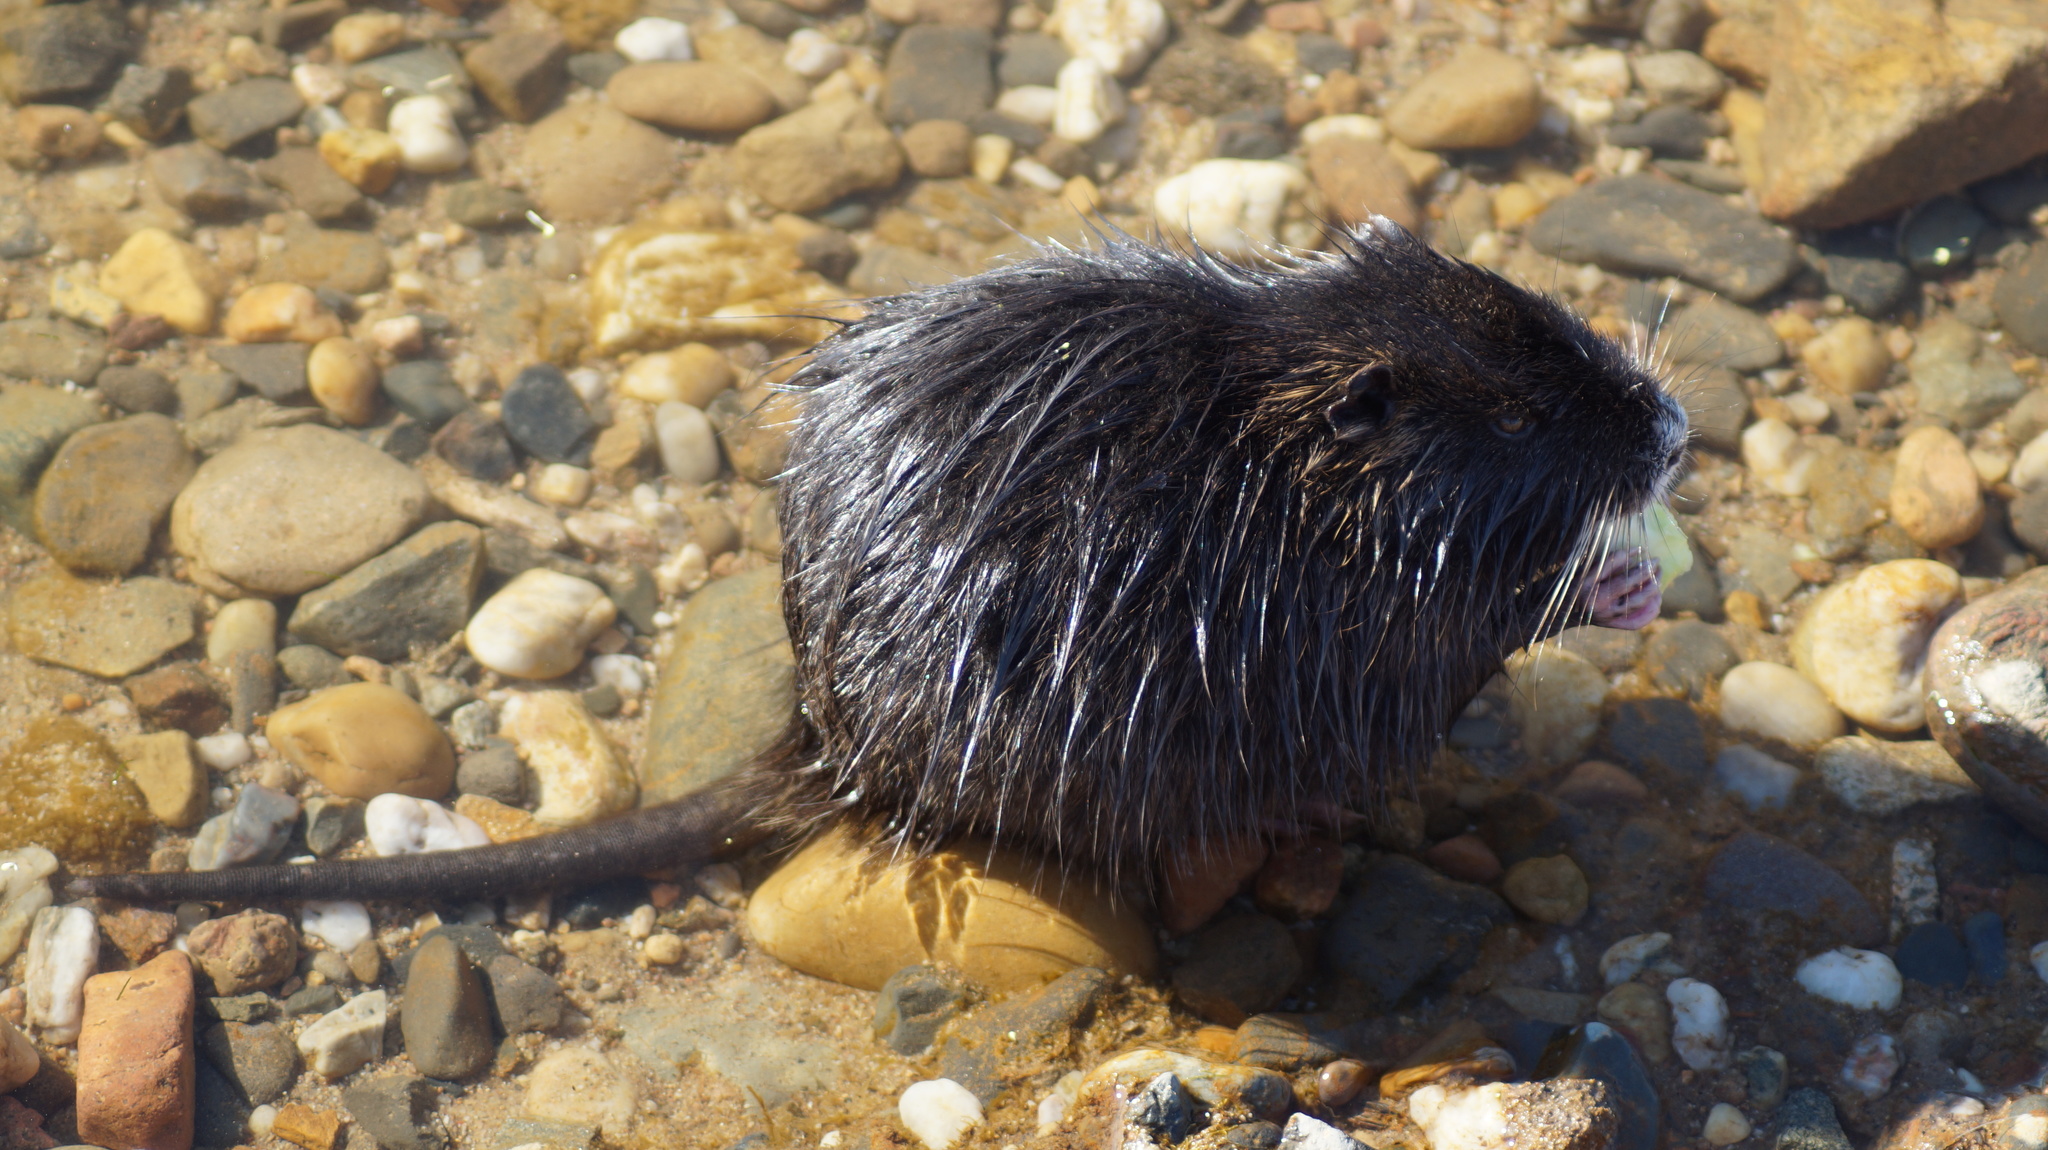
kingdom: Animalia
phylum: Chordata
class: Mammalia
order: Rodentia
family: Myocastoridae
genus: Myocastor
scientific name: Myocastor coypus
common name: Coypu
